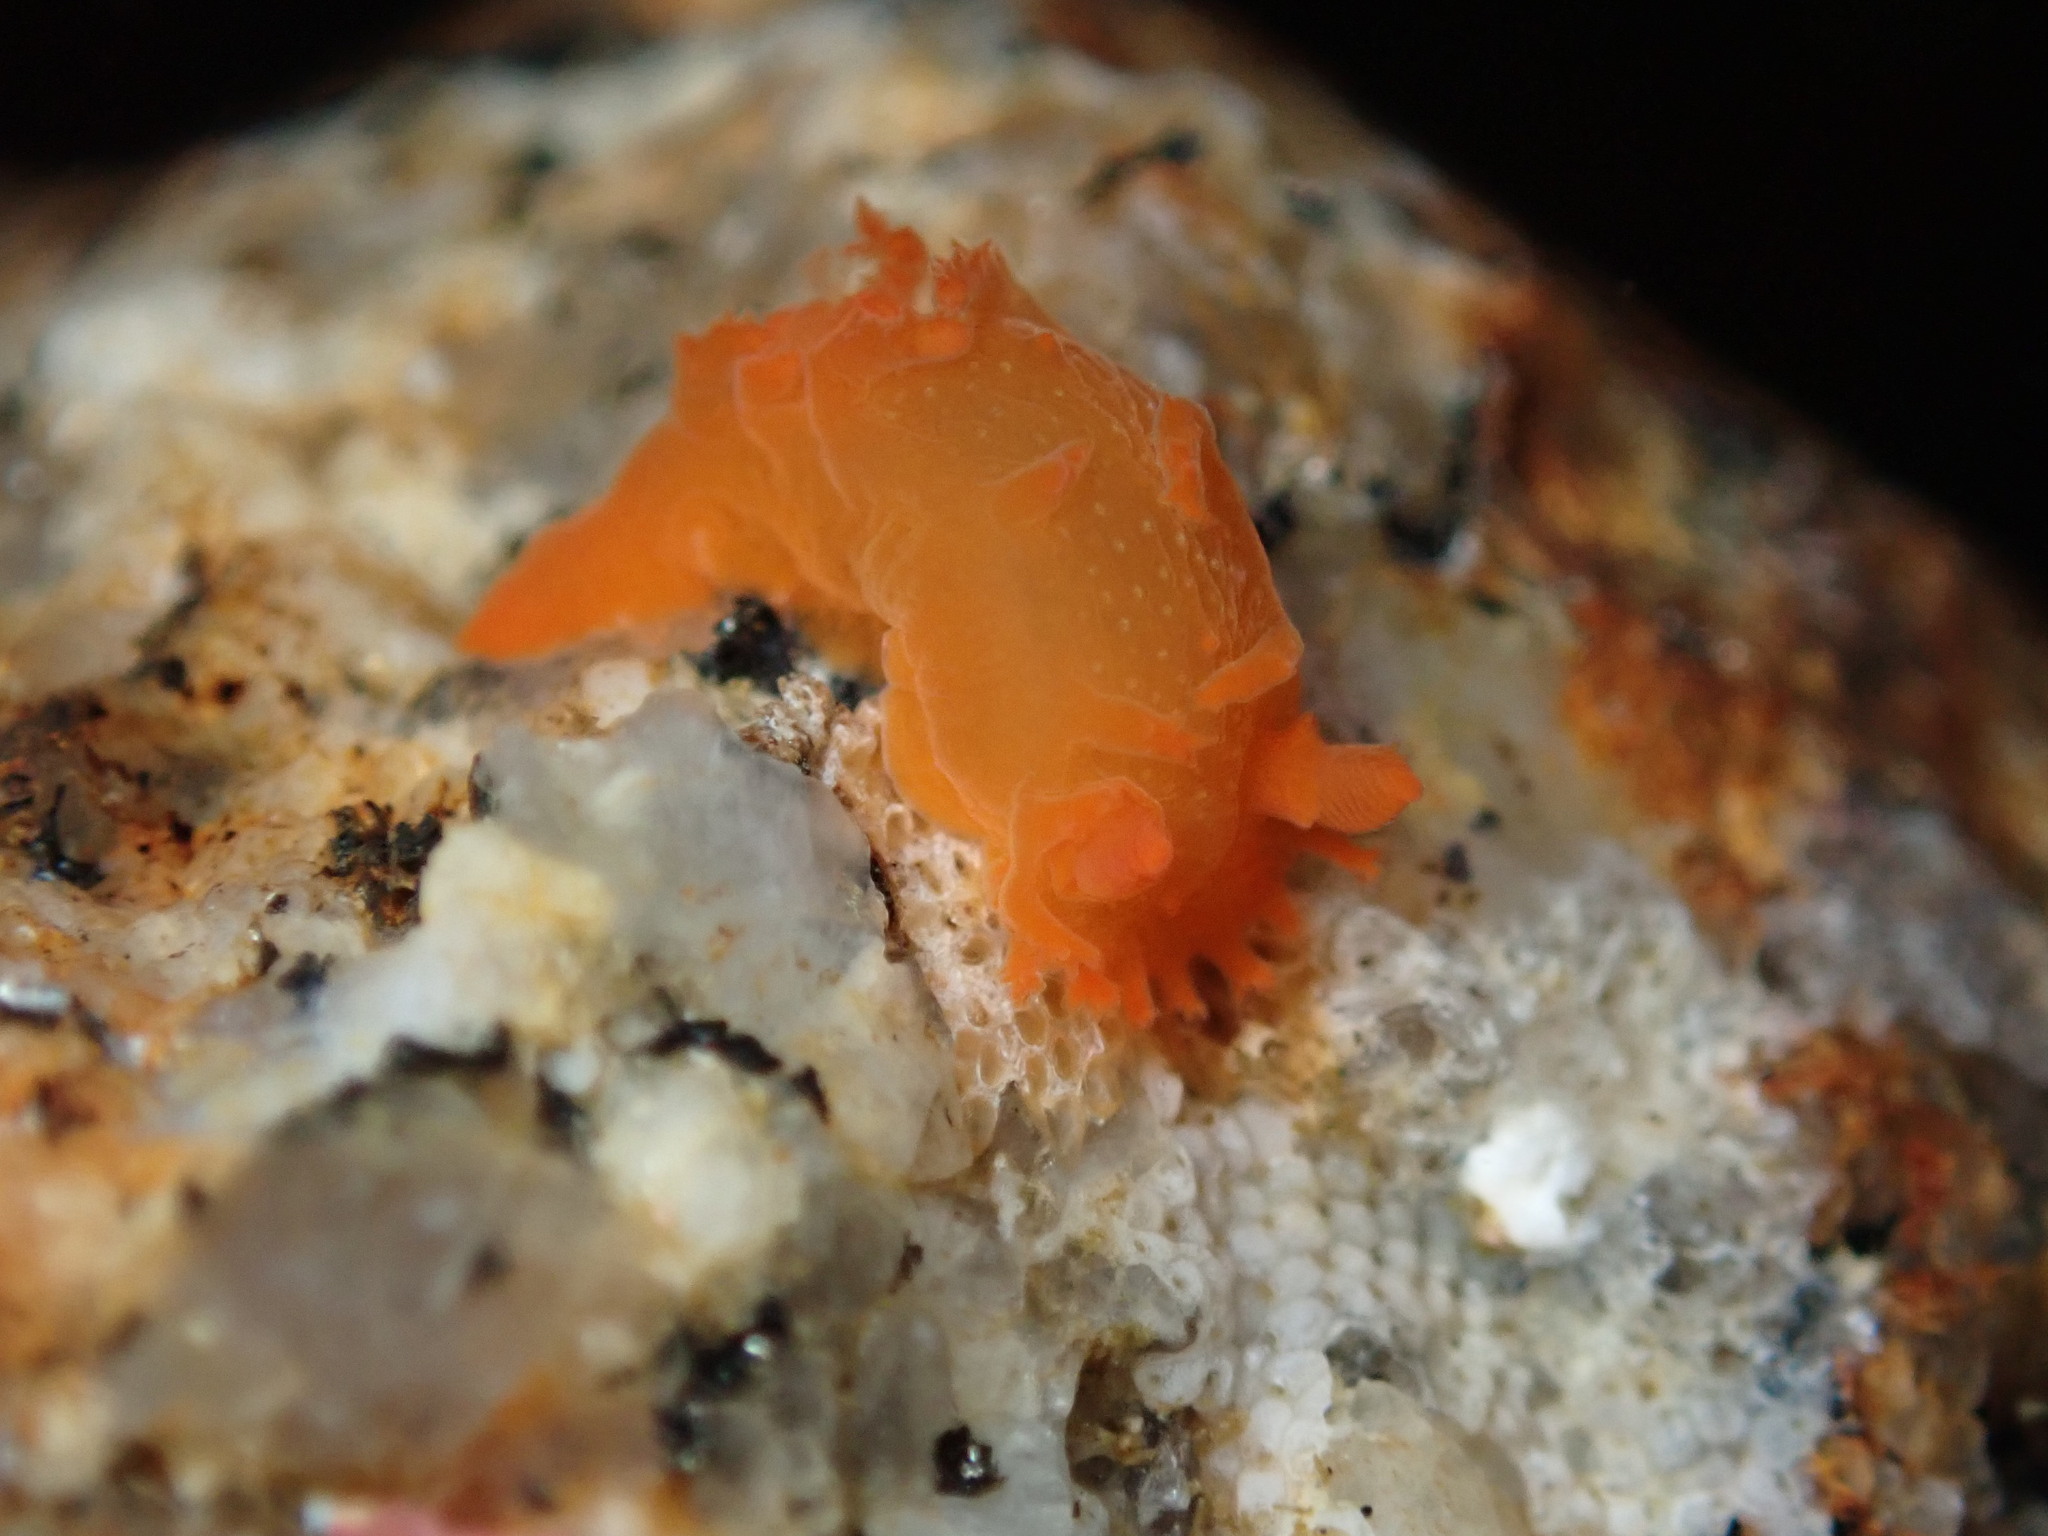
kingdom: Animalia
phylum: Mollusca
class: Gastropoda
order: Nudibranchia
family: Polyceridae
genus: Triopha
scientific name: Triopha maculata
